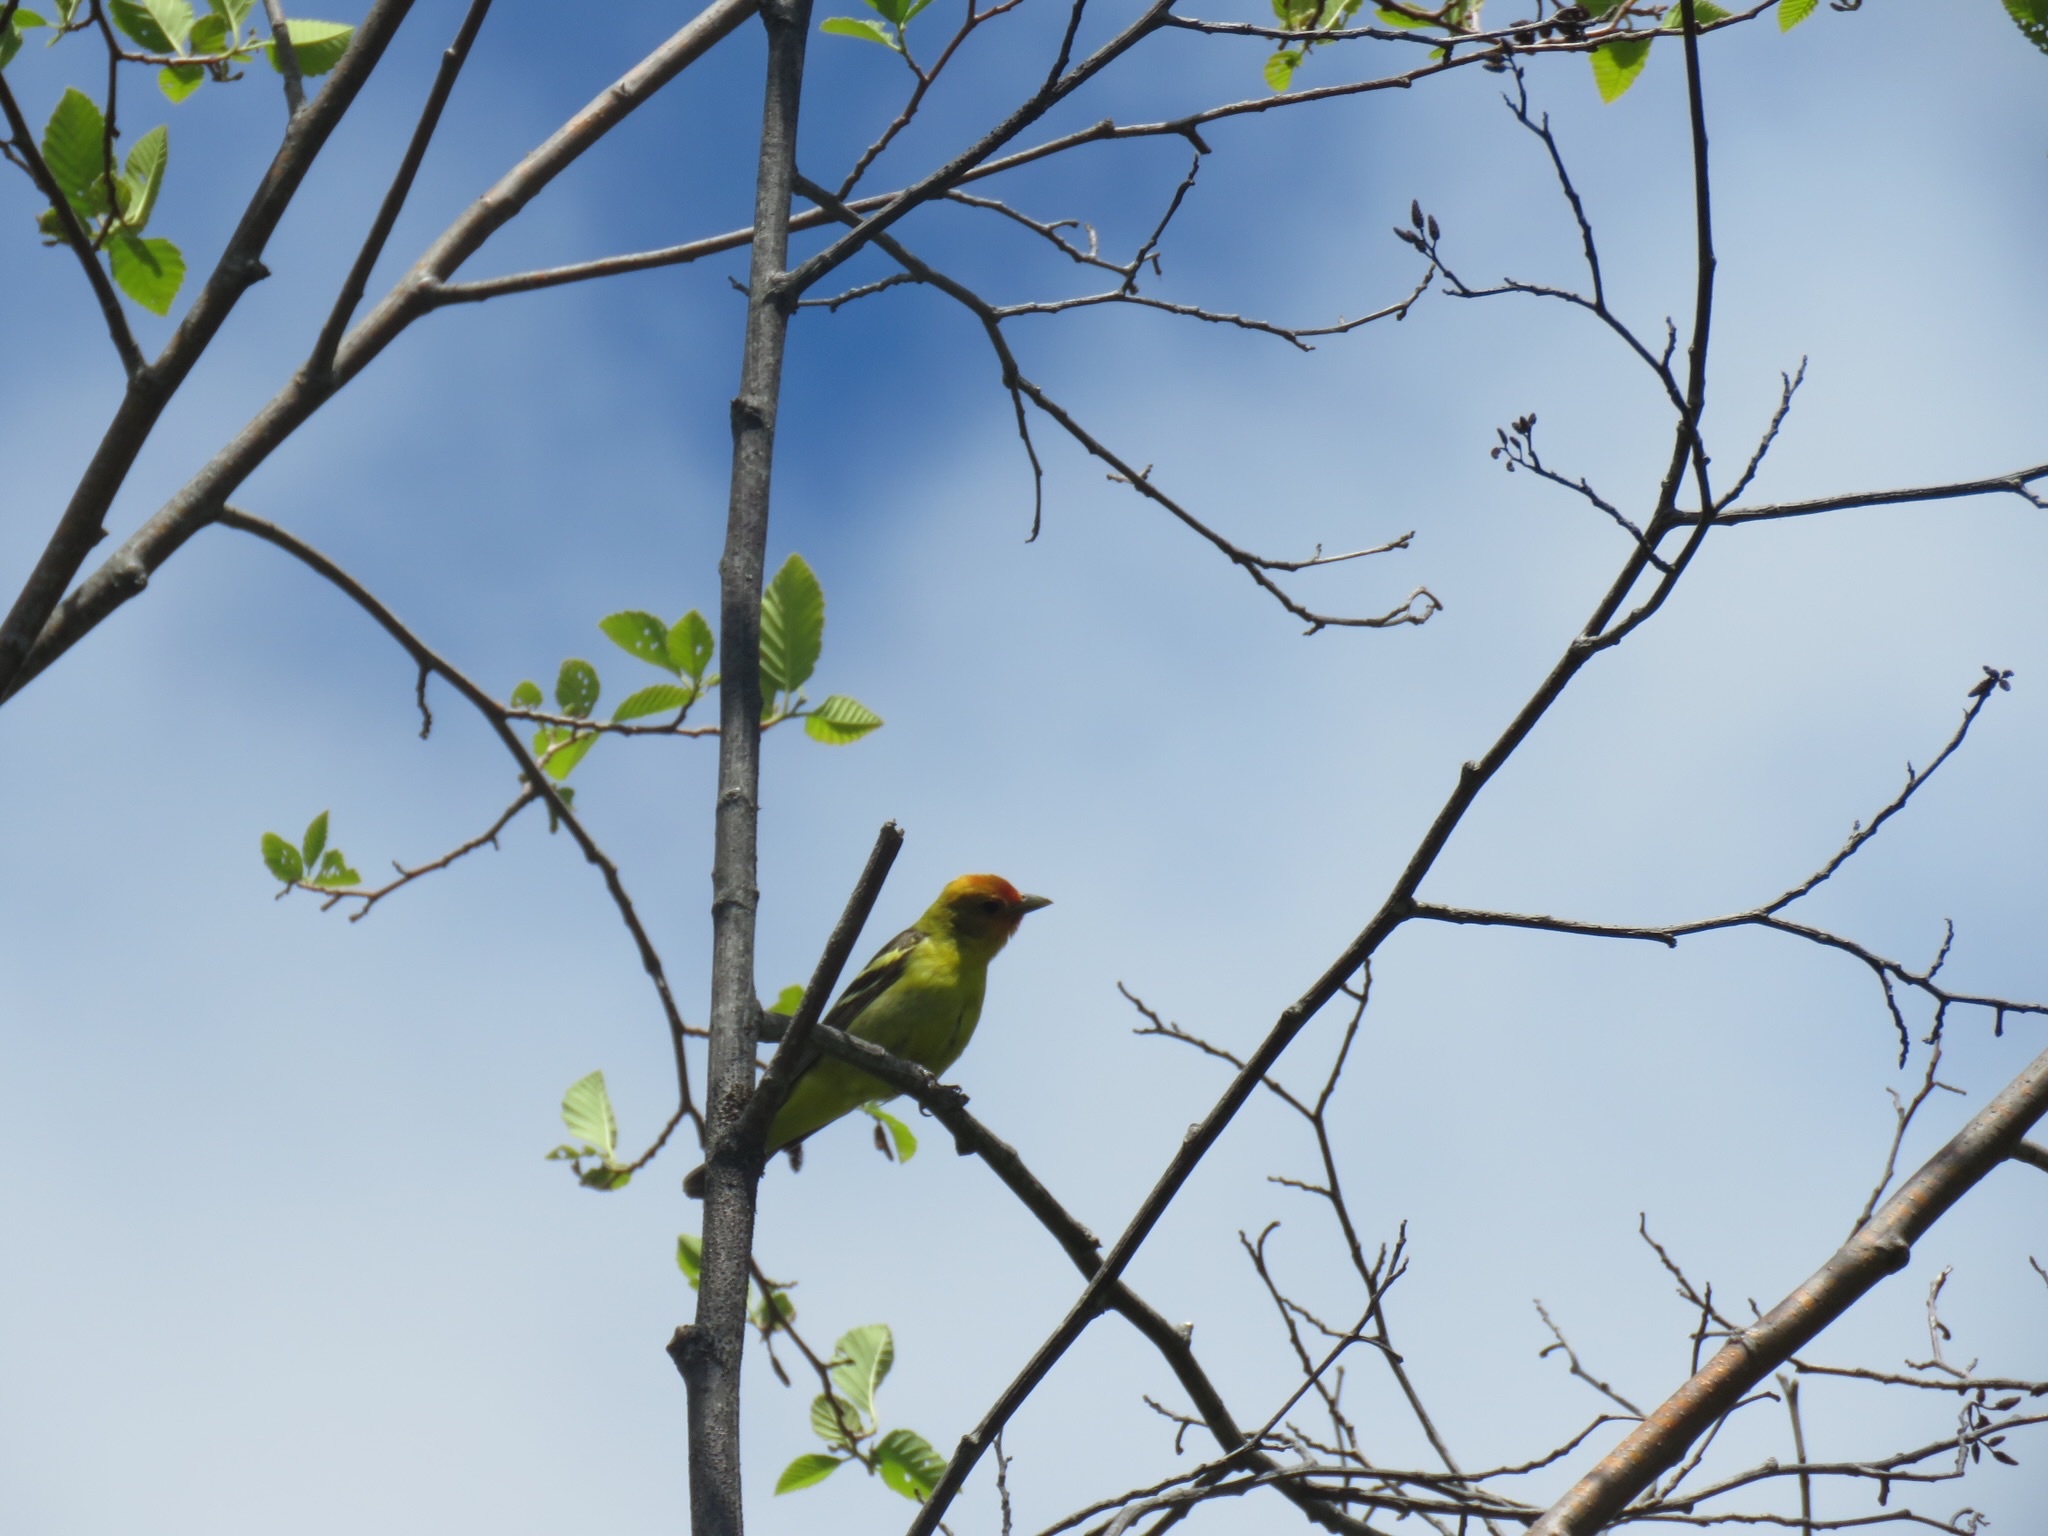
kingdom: Animalia
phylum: Chordata
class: Aves
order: Passeriformes
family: Cardinalidae
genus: Piranga
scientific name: Piranga ludoviciana
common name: Western tanager
